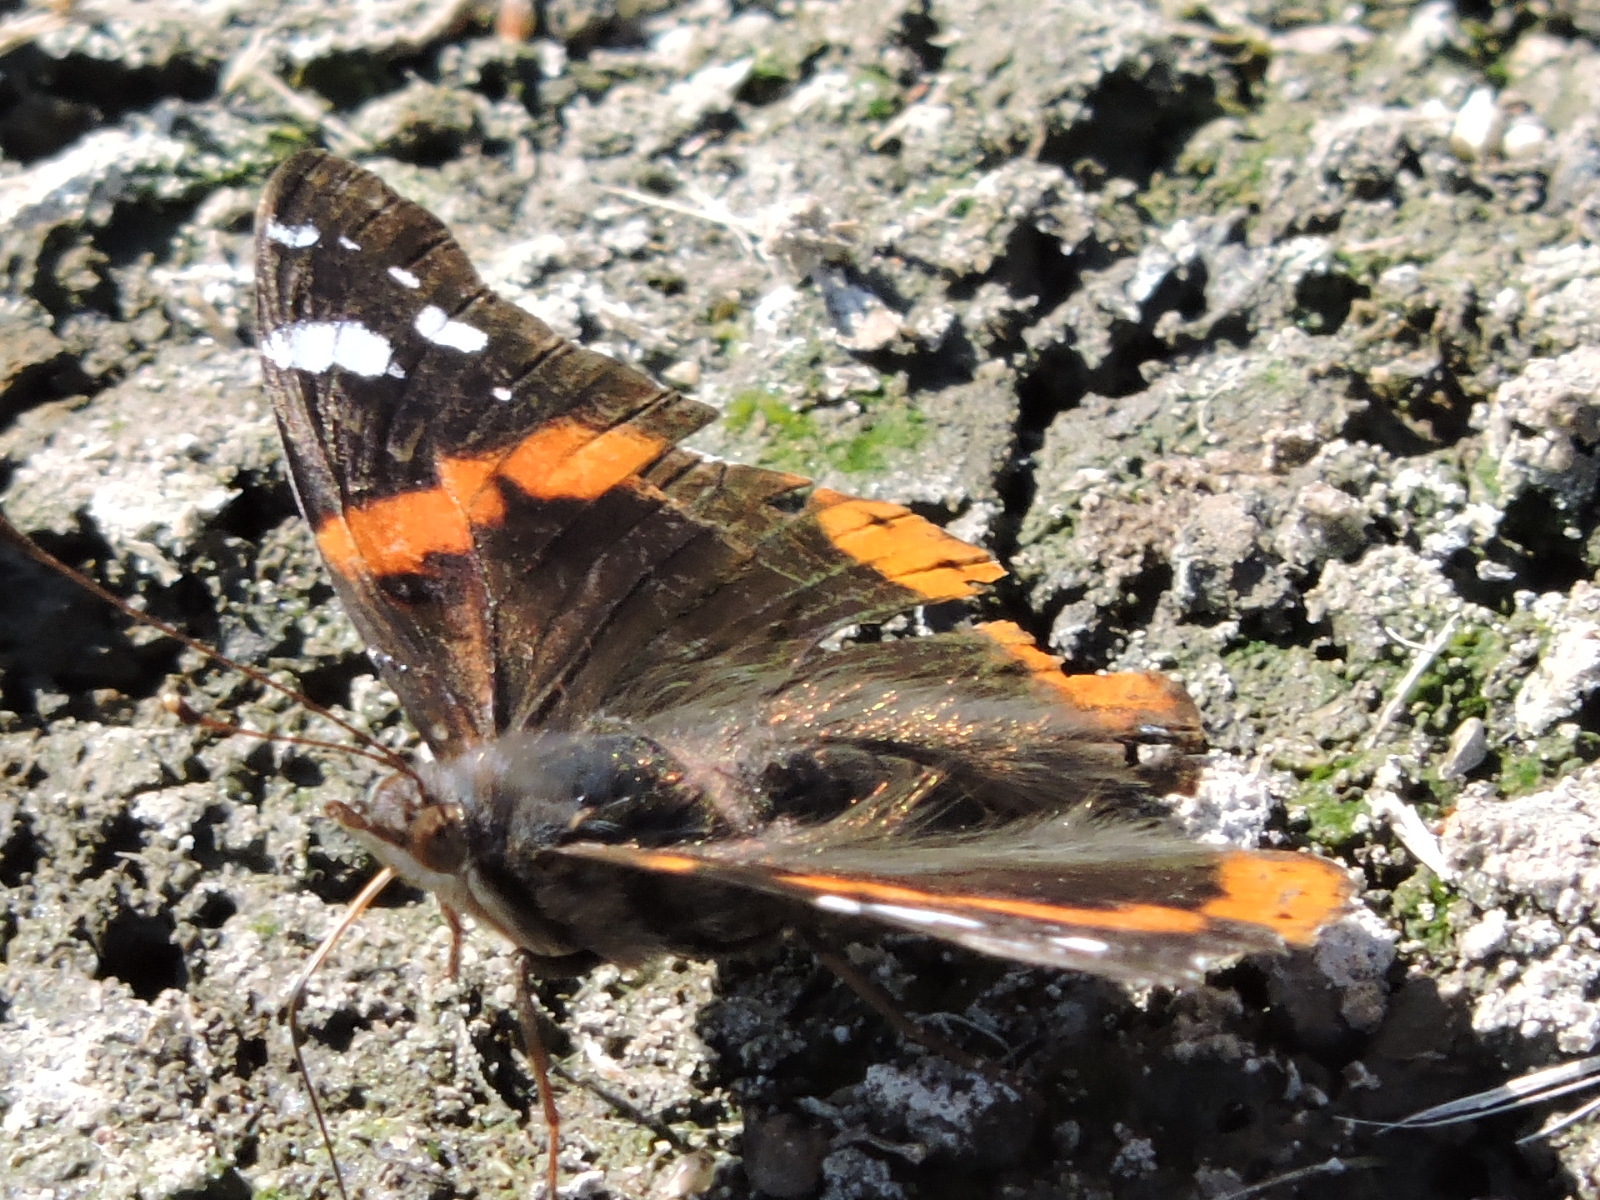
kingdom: Animalia
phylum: Arthropoda
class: Insecta
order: Lepidoptera
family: Nymphalidae
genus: Vanessa
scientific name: Vanessa atalanta
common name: Red admiral
